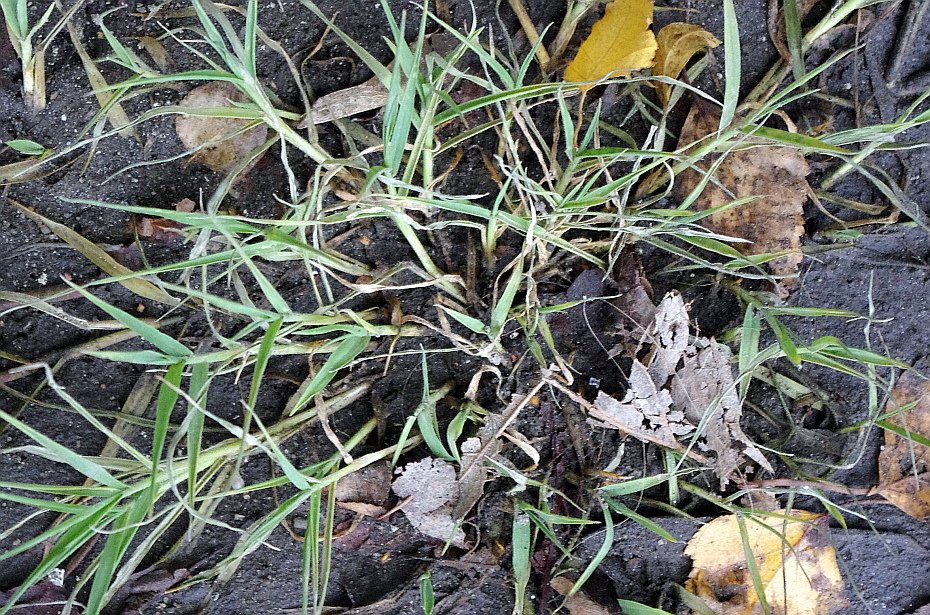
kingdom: Plantae
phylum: Tracheophyta
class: Liliopsida
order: Poales
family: Poaceae
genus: Cynodon
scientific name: Cynodon dactylon
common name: Bermuda grass
